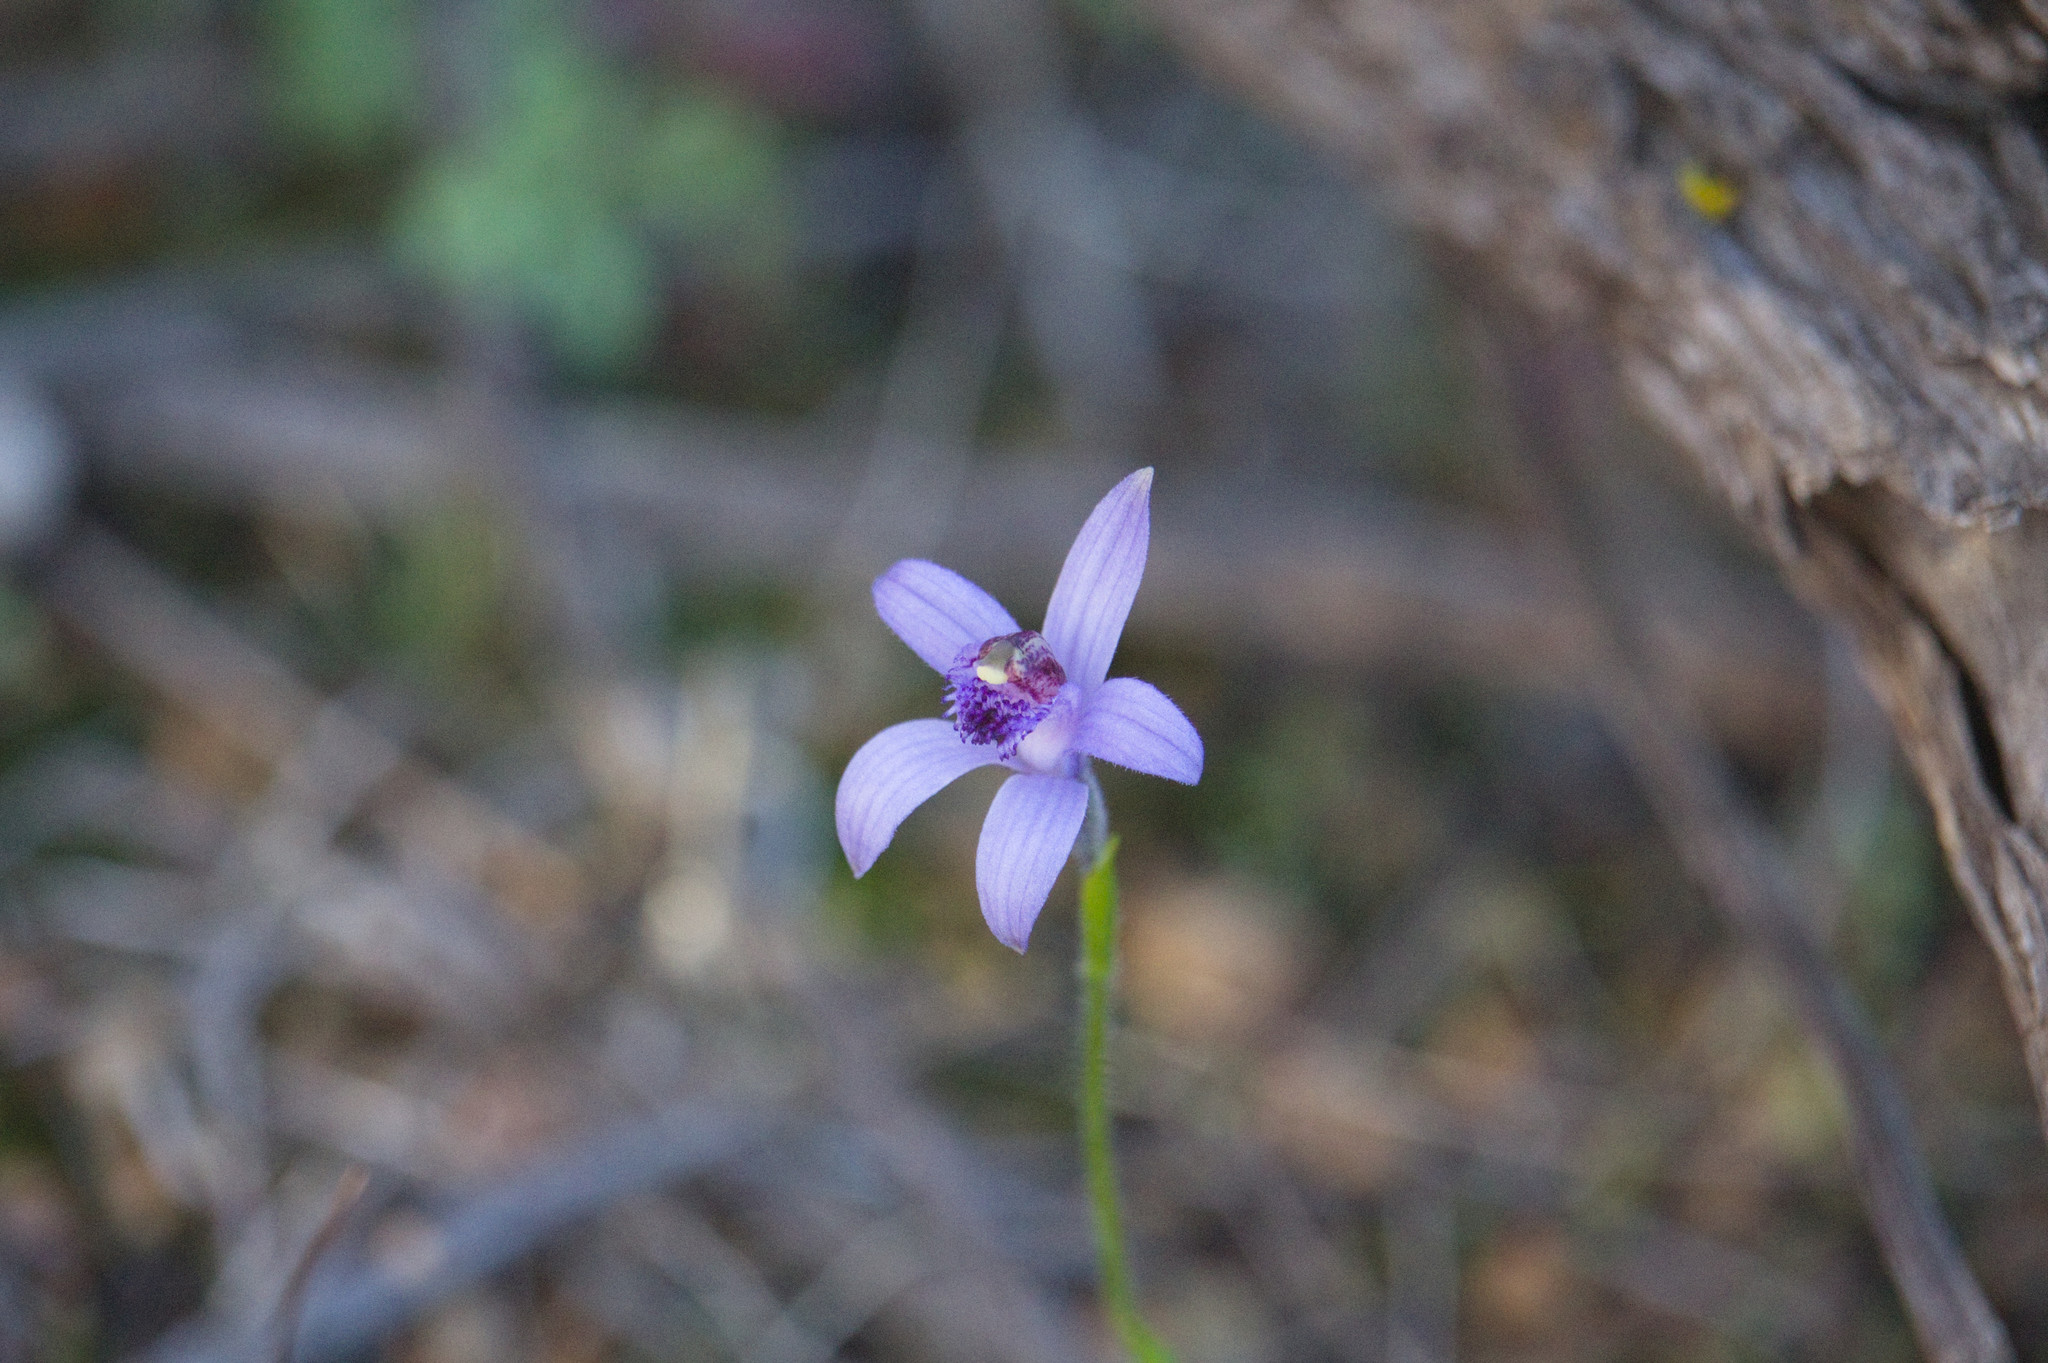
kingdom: Plantae
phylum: Tracheophyta
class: Liliopsida
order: Asparagales
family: Orchidaceae
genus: Pheladenia
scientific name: Pheladenia deformis
